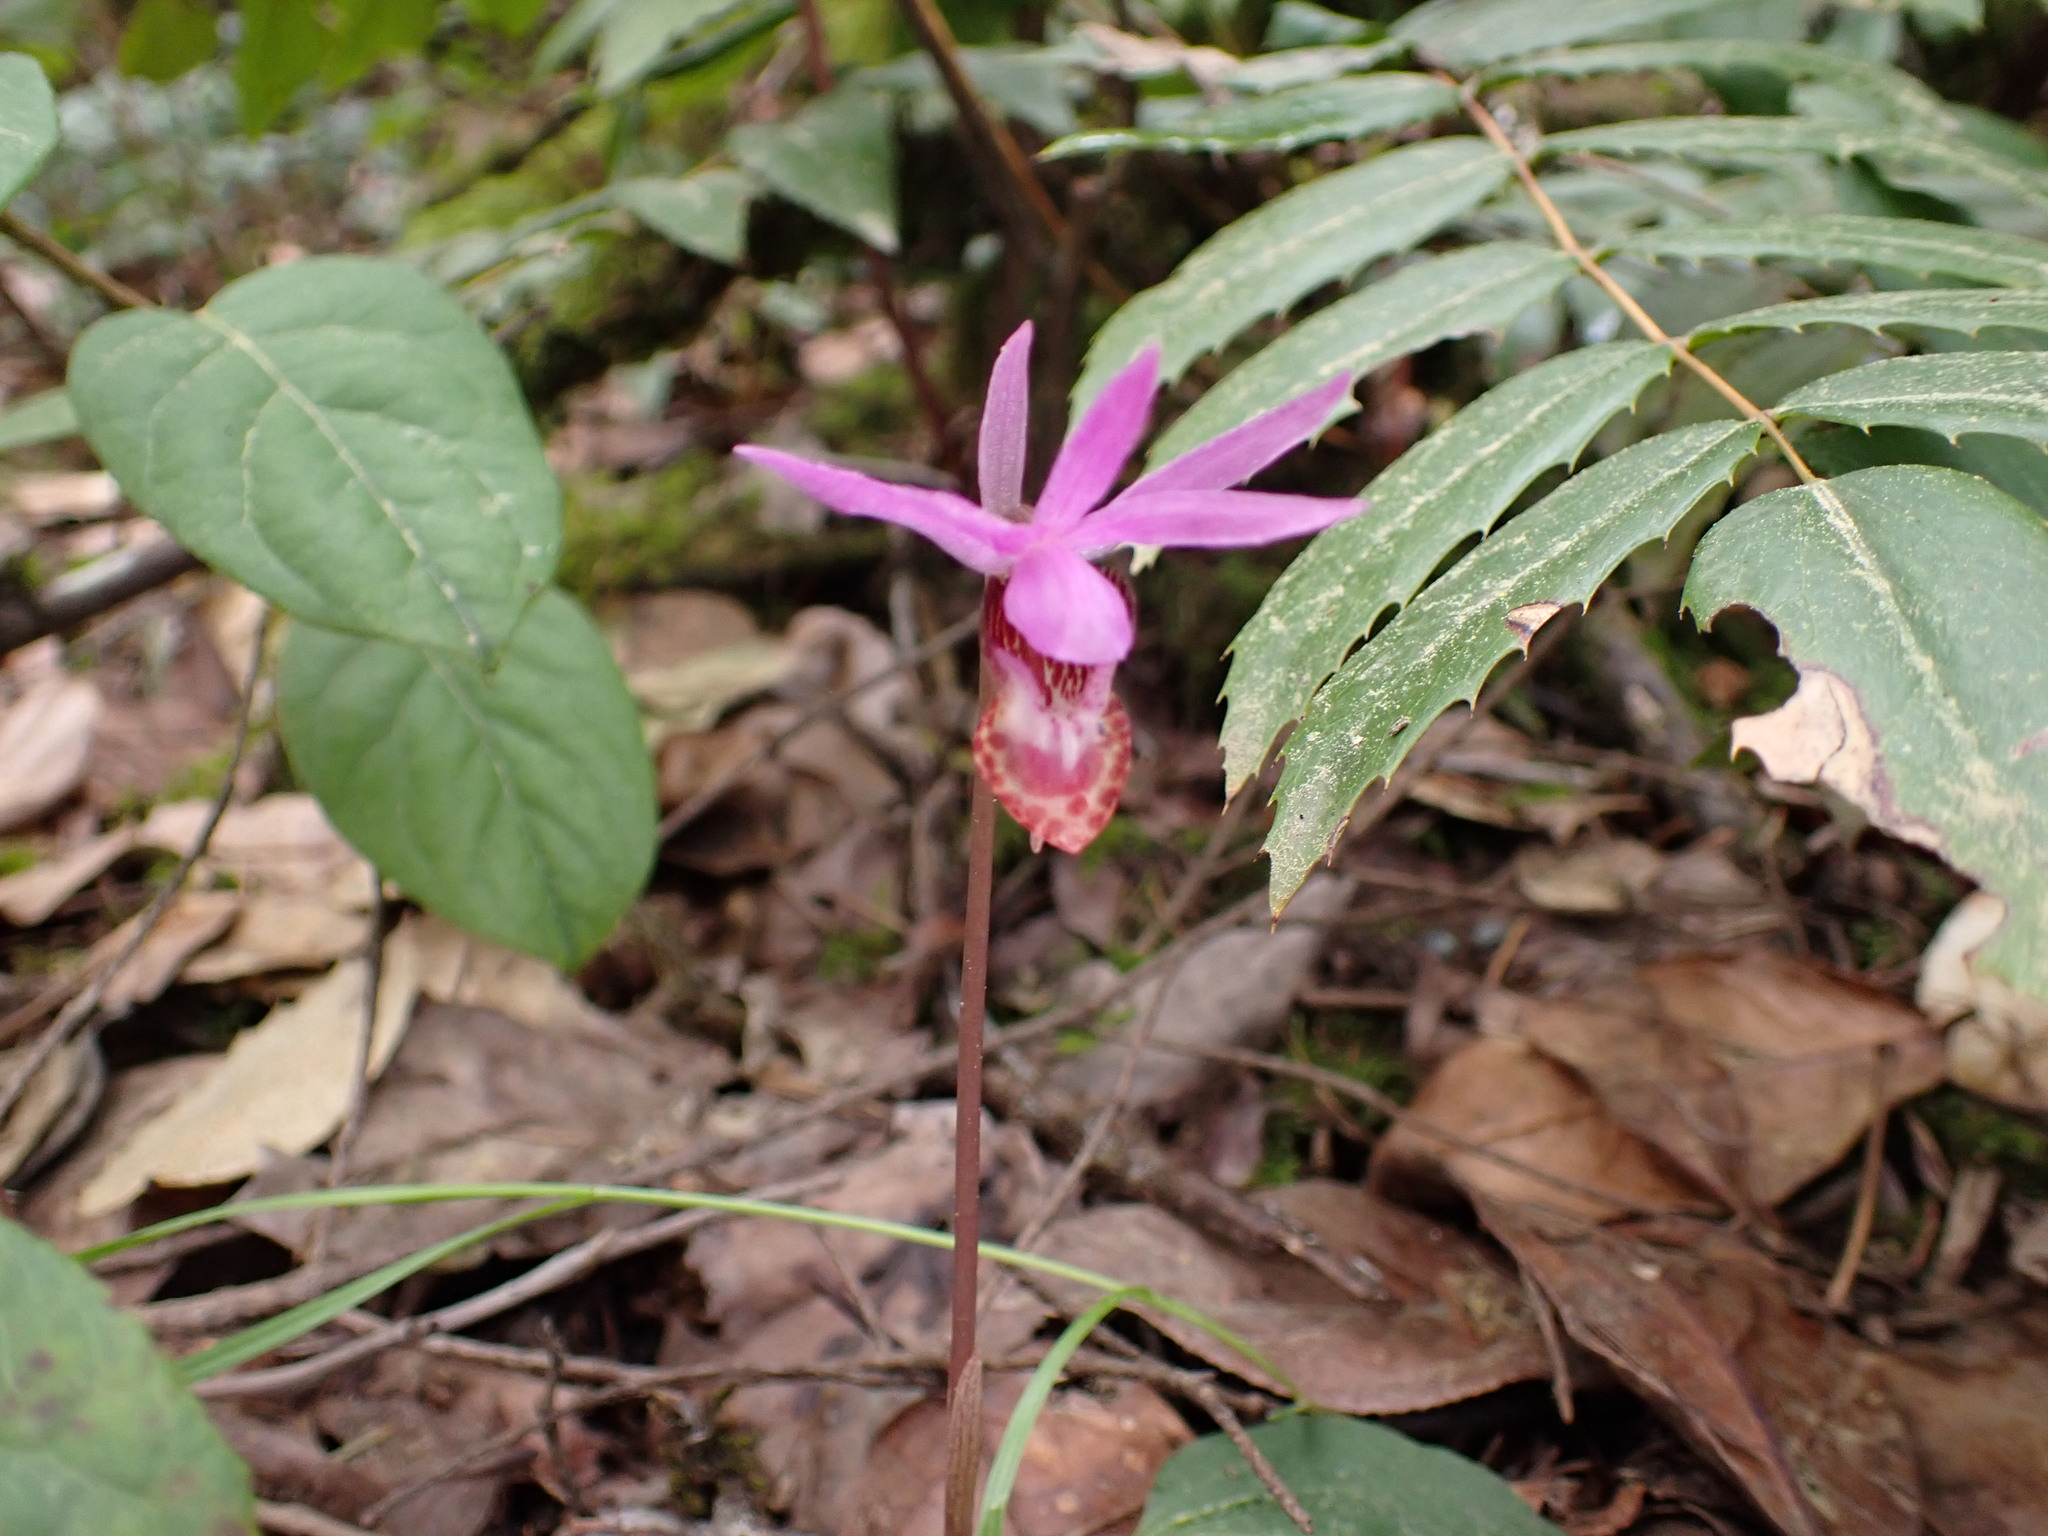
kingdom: Plantae
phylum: Tracheophyta
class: Liliopsida
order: Asparagales
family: Orchidaceae
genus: Calypso
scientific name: Calypso bulbosa
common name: Calypso
